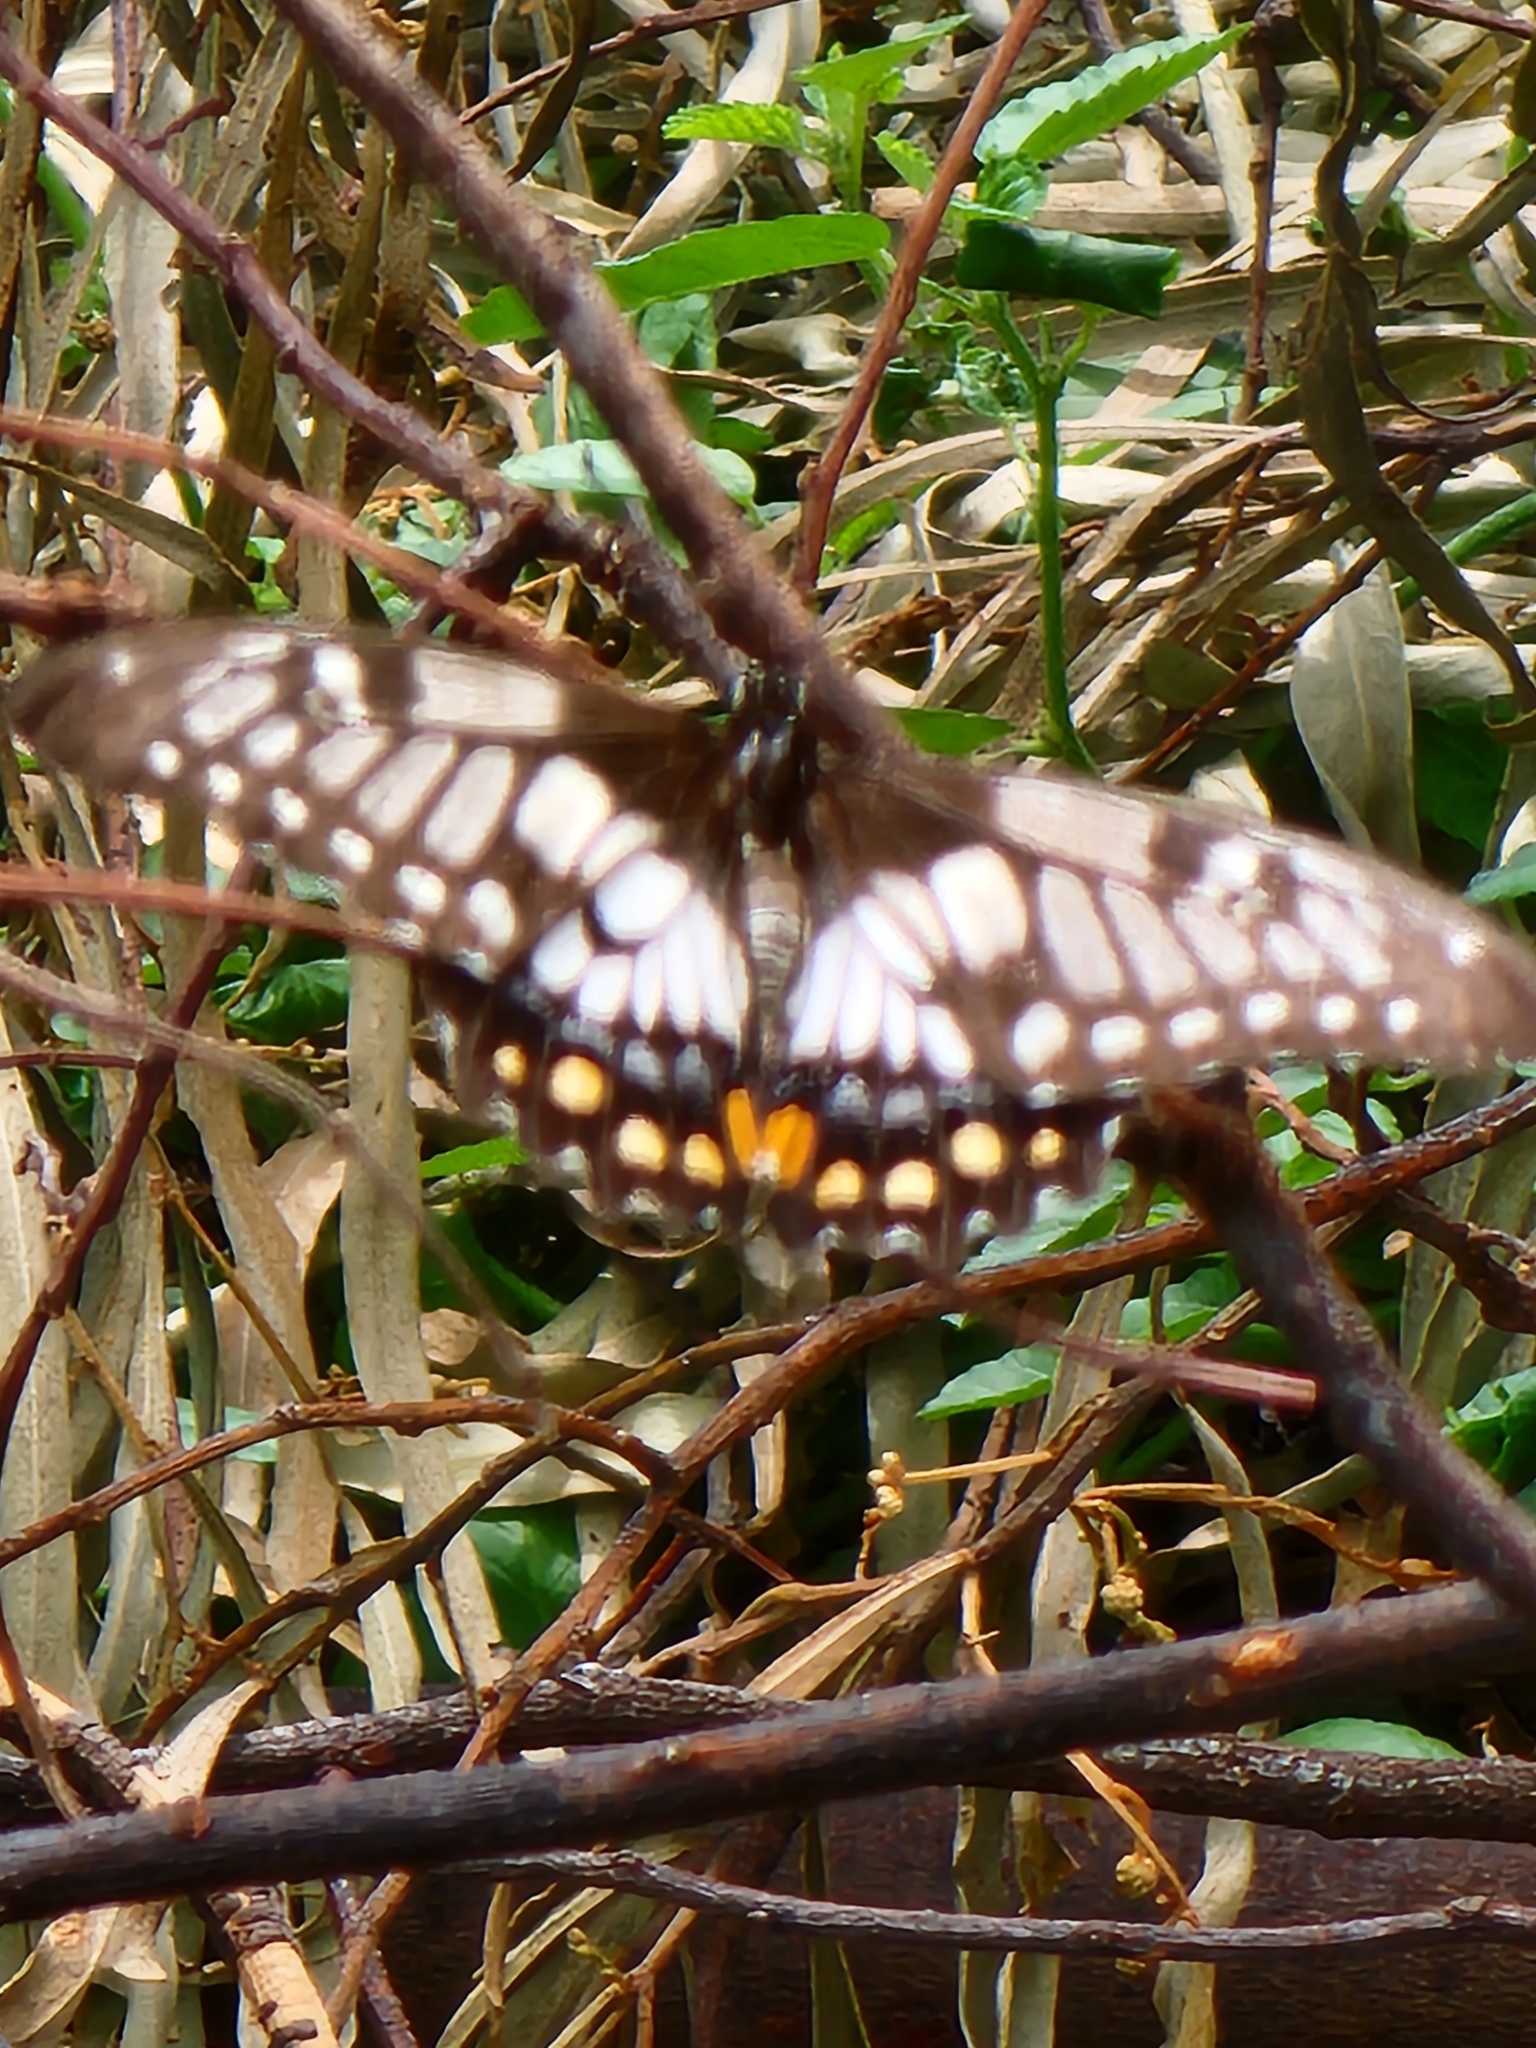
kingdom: Animalia
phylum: Arthropoda
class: Insecta
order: Lepidoptera
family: Papilionidae
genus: Papilio
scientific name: Papilio anactus
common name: Dingy swallowtail
